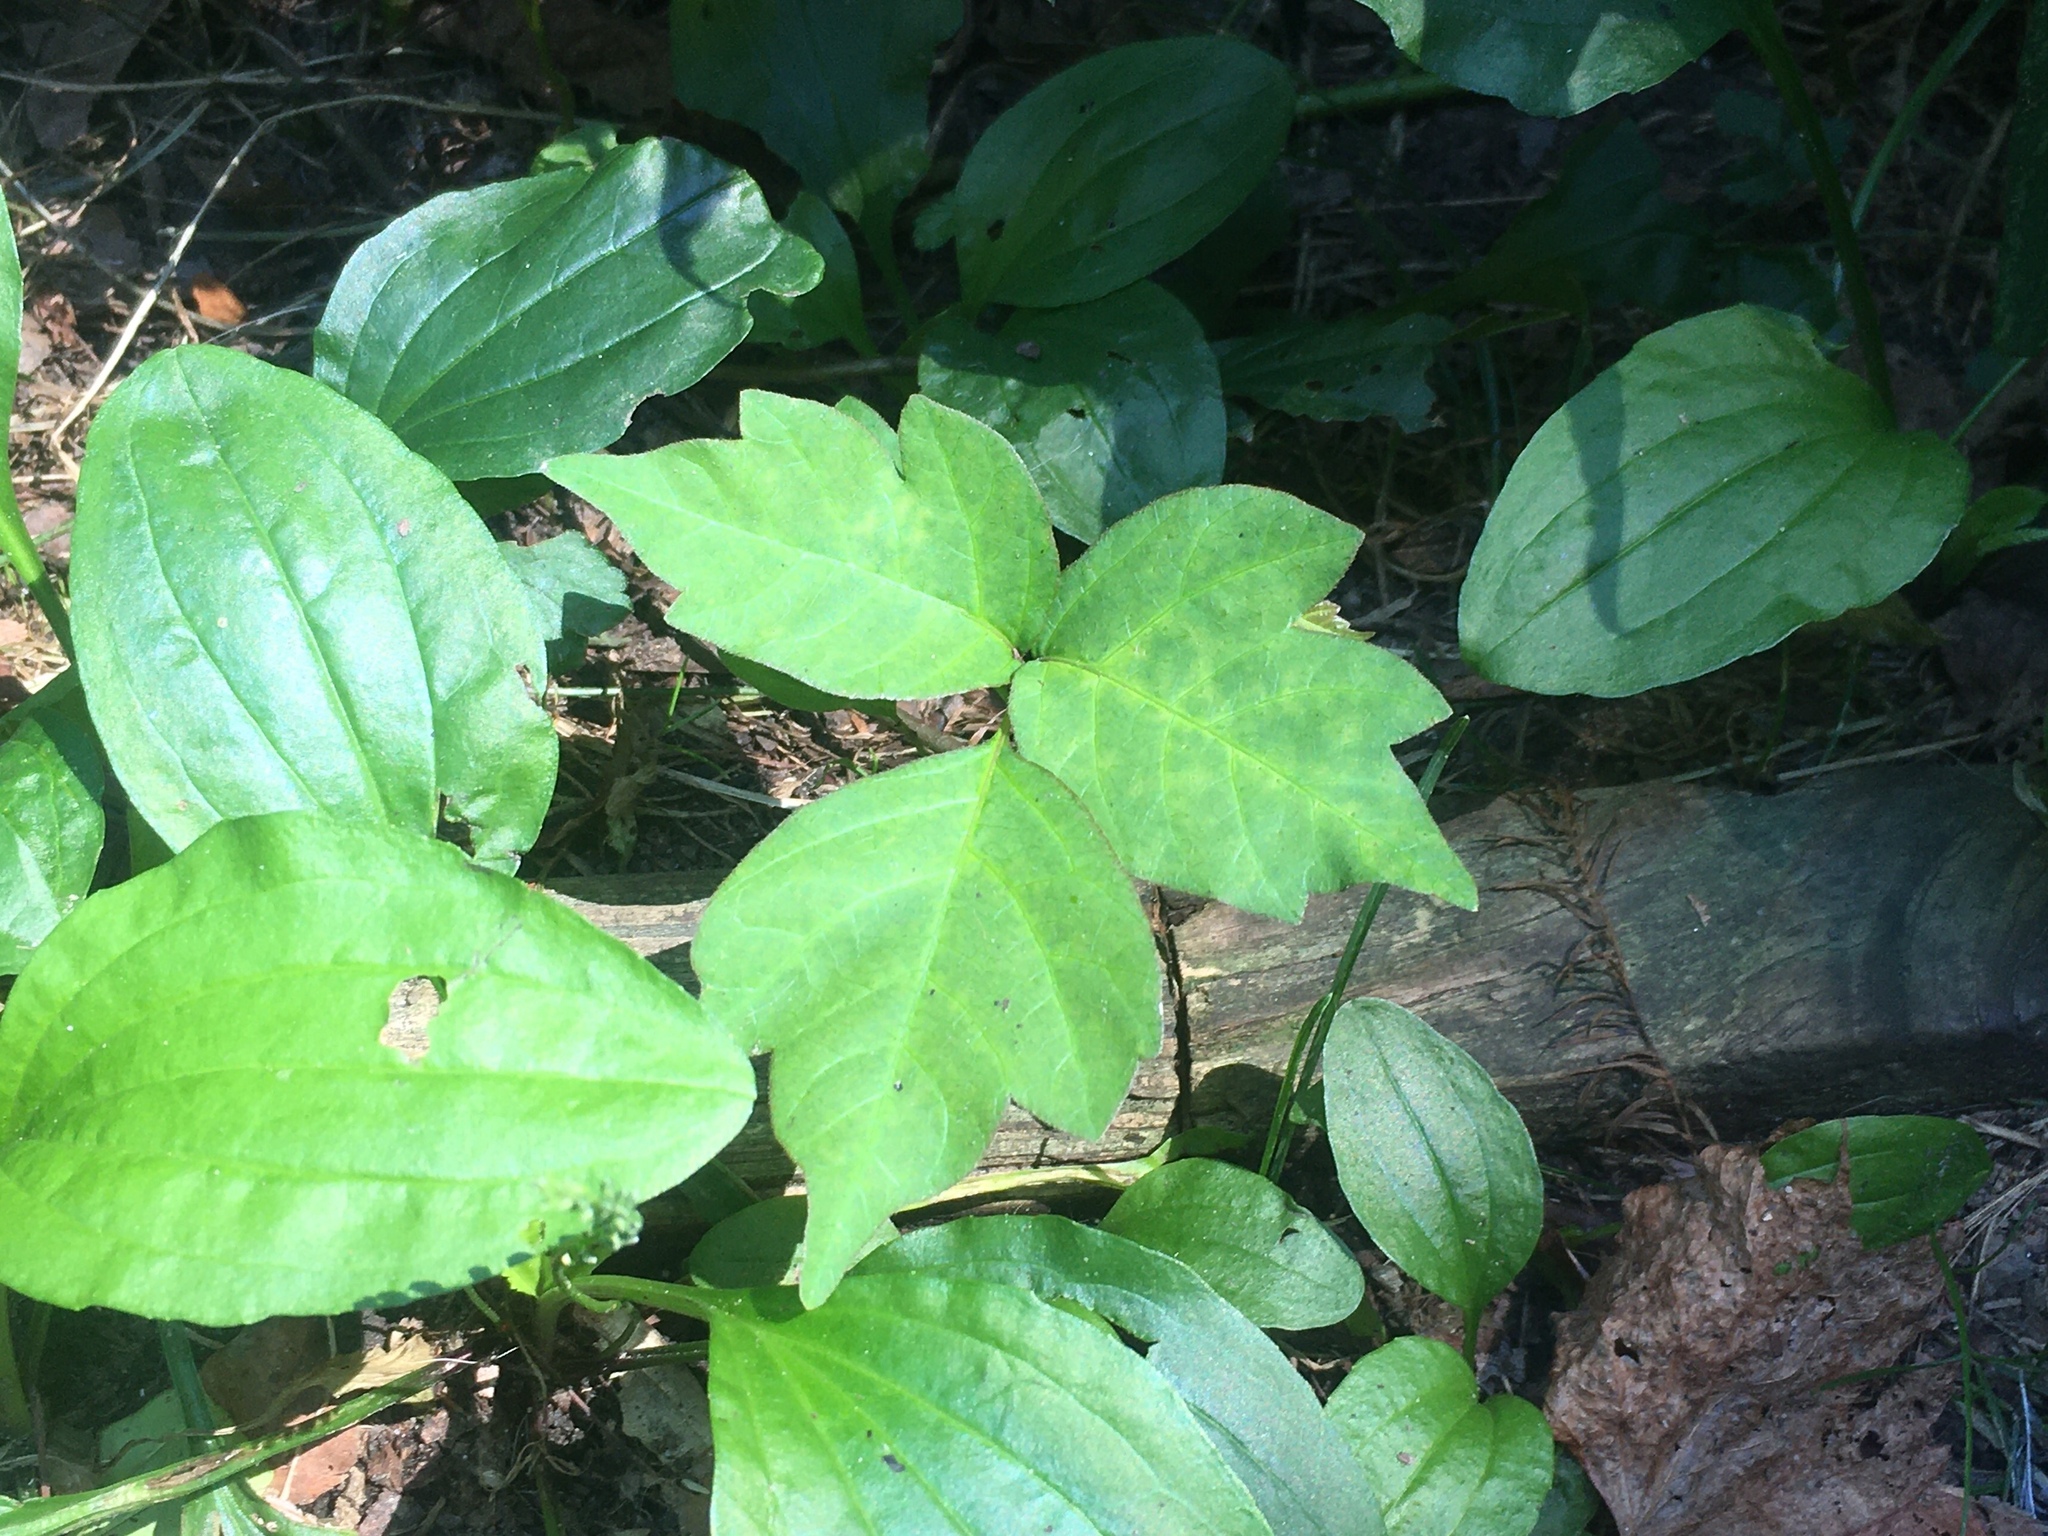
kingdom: Plantae
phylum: Tracheophyta
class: Magnoliopsida
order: Sapindales
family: Anacardiaceae
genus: Toxicodendron
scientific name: Toxicodendron radicans
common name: Poison ivy
